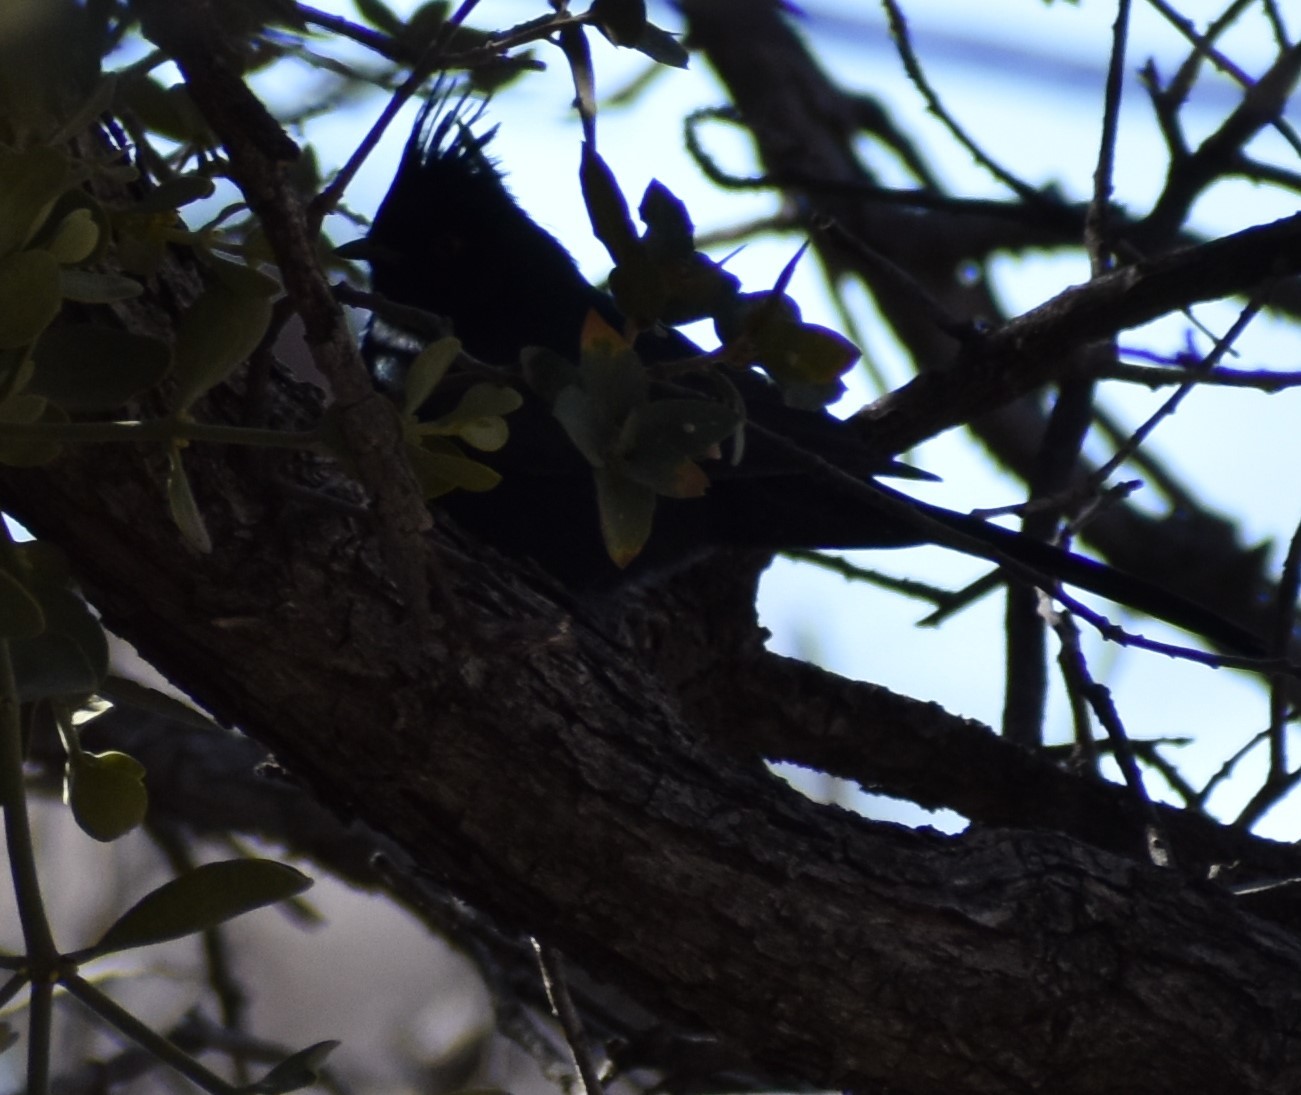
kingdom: Animalia
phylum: Chordata
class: Aves
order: Passeriformes
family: Ptilogonatidae
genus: Phainopepla
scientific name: Phainopepla nitens
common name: Phainopepla
